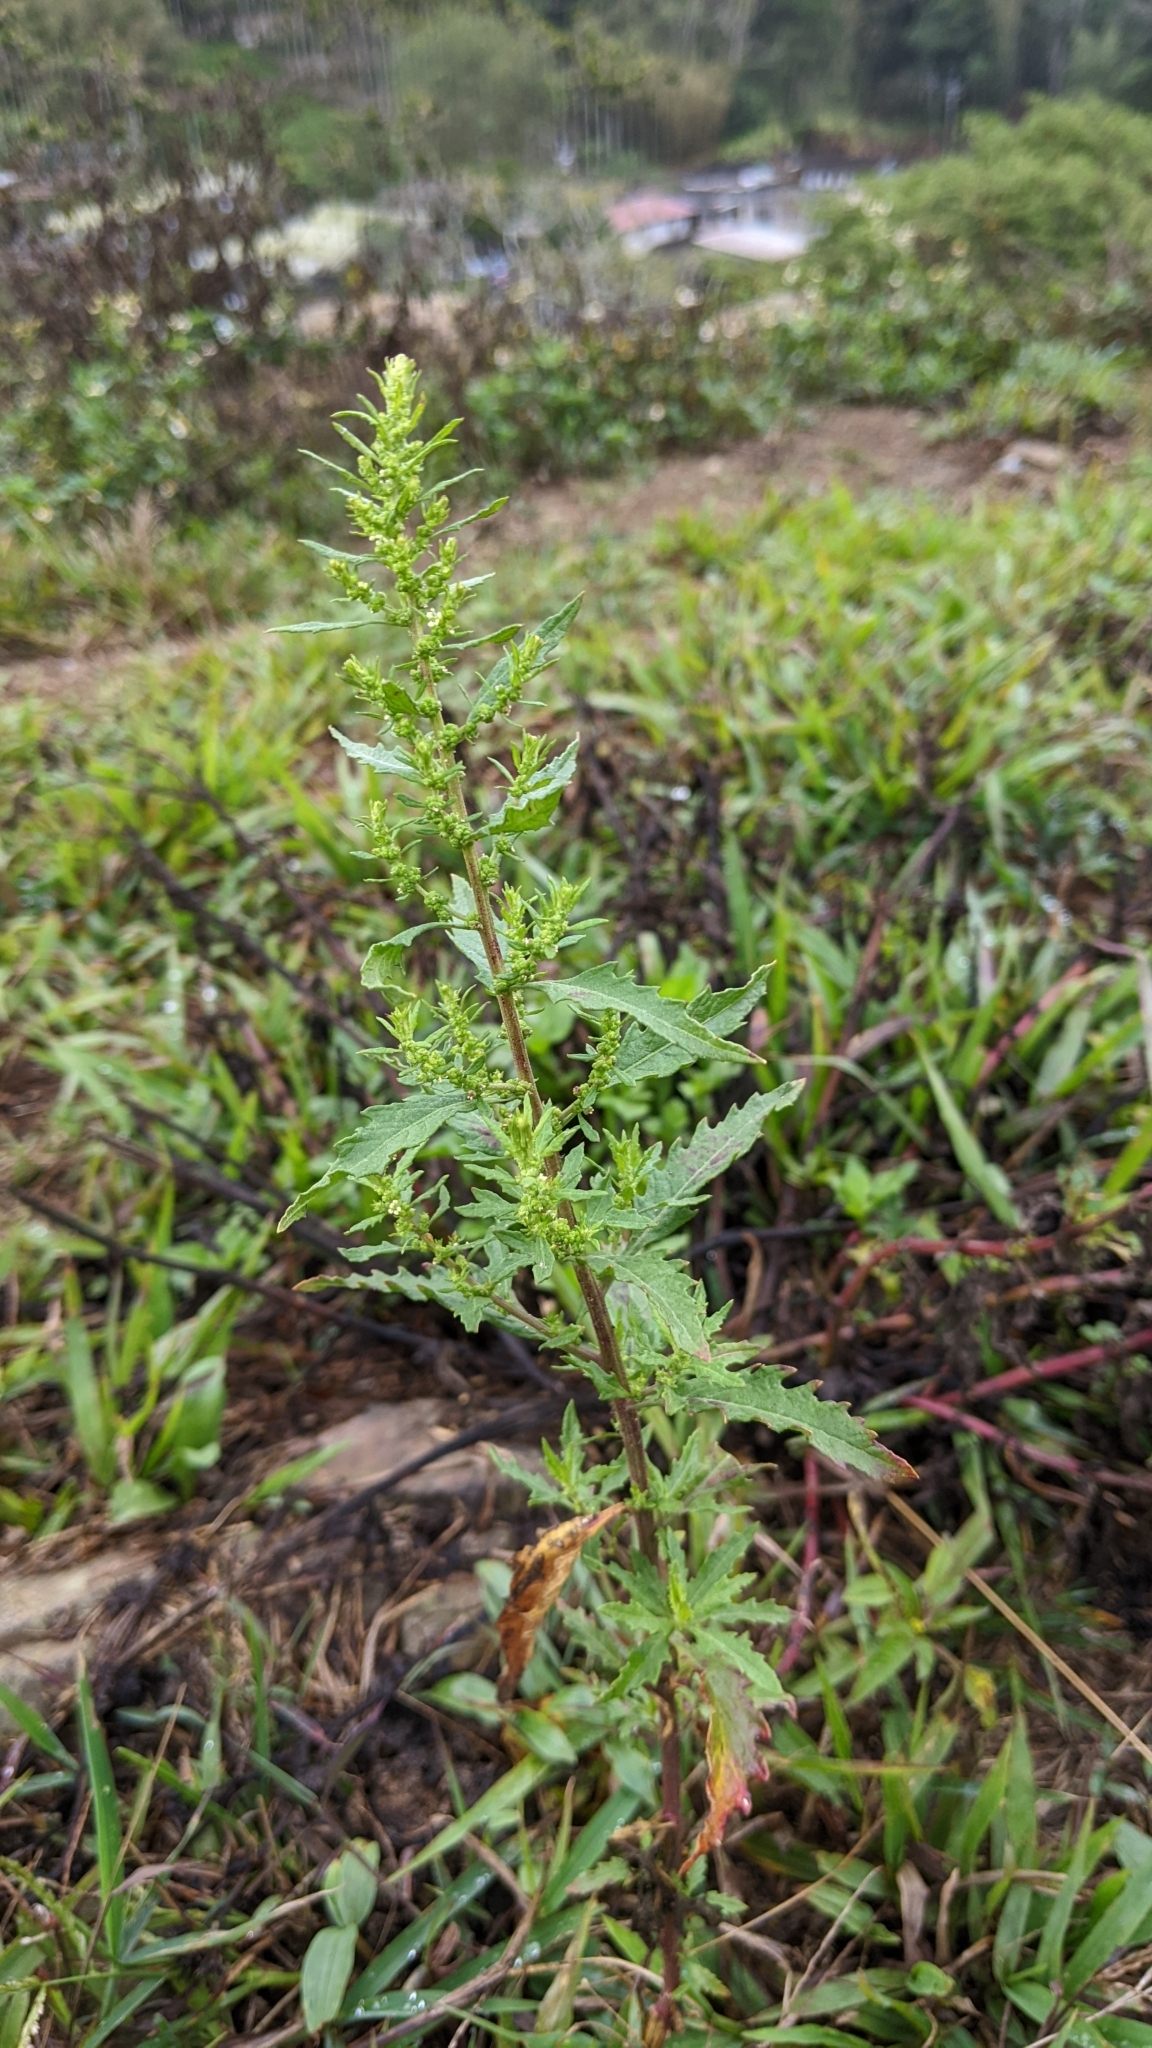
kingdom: Plantae
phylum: Tracheophyta
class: Magnoliopsida
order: Caryophyllales
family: Amaranthaceae
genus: Dysphania
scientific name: Dysphania ambrosioides
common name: Wormseed
